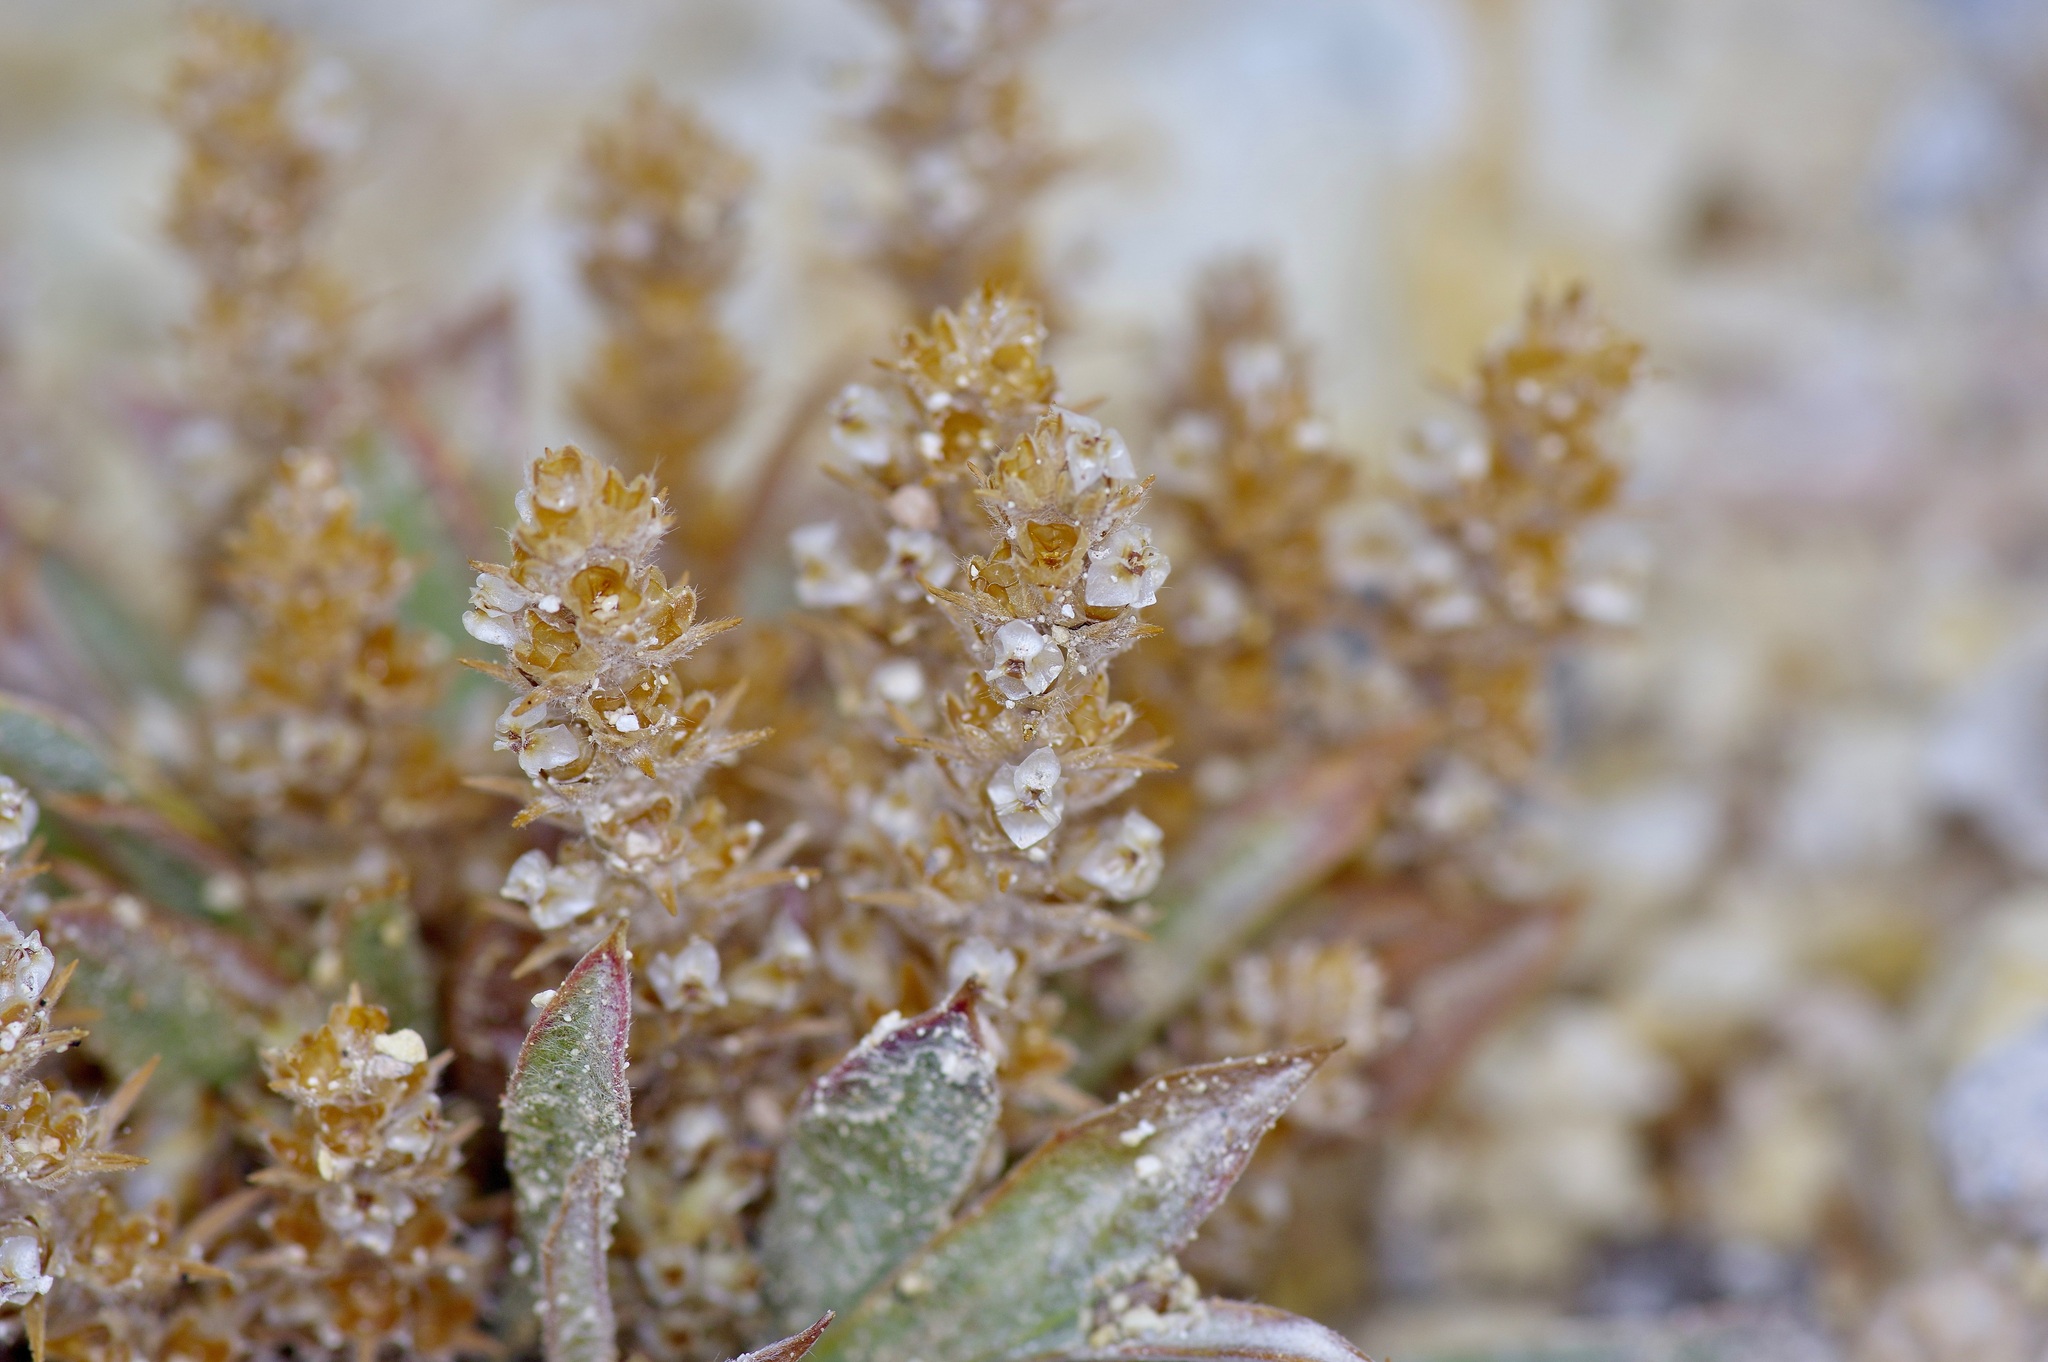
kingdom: Plantae
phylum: Tracheophyta
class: Magnoliopsida
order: Lamiales
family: Plantaginaceae
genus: Plantago
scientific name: Plantago patagonica
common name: Patagonia indian-wheat
